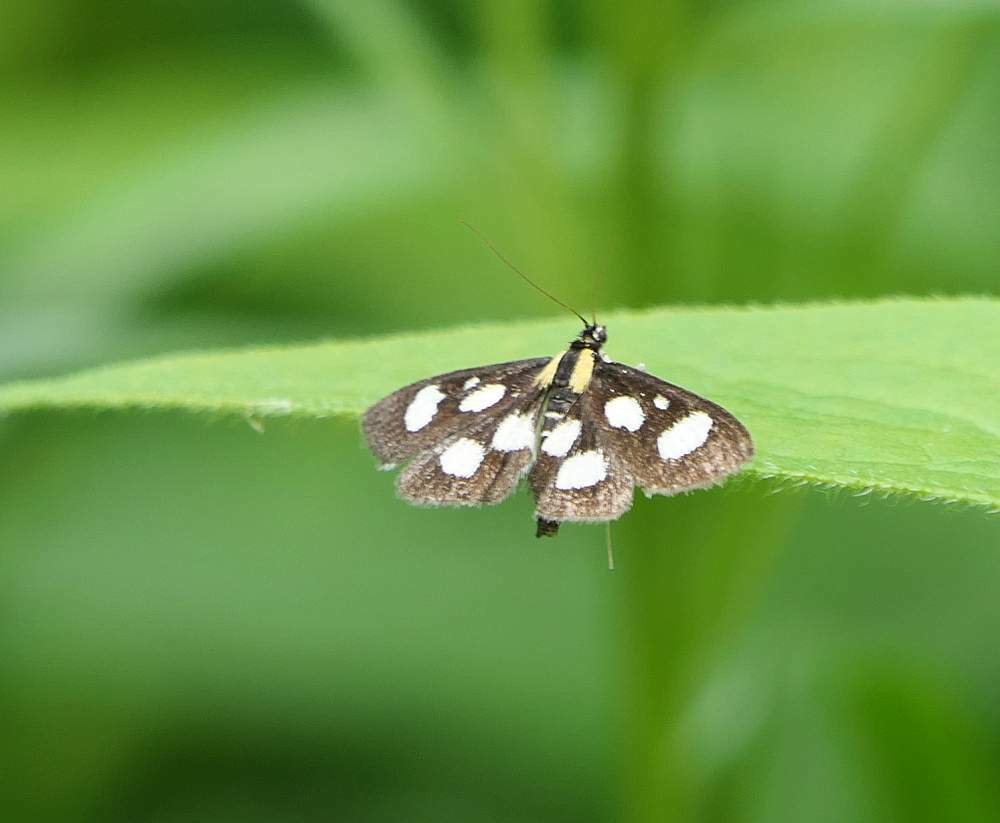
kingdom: Animalia
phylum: Arthropoda
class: Insecta
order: Lepidoptera
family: Crambidae
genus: Anania
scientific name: Anania funebris
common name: White-spotted sable moth
